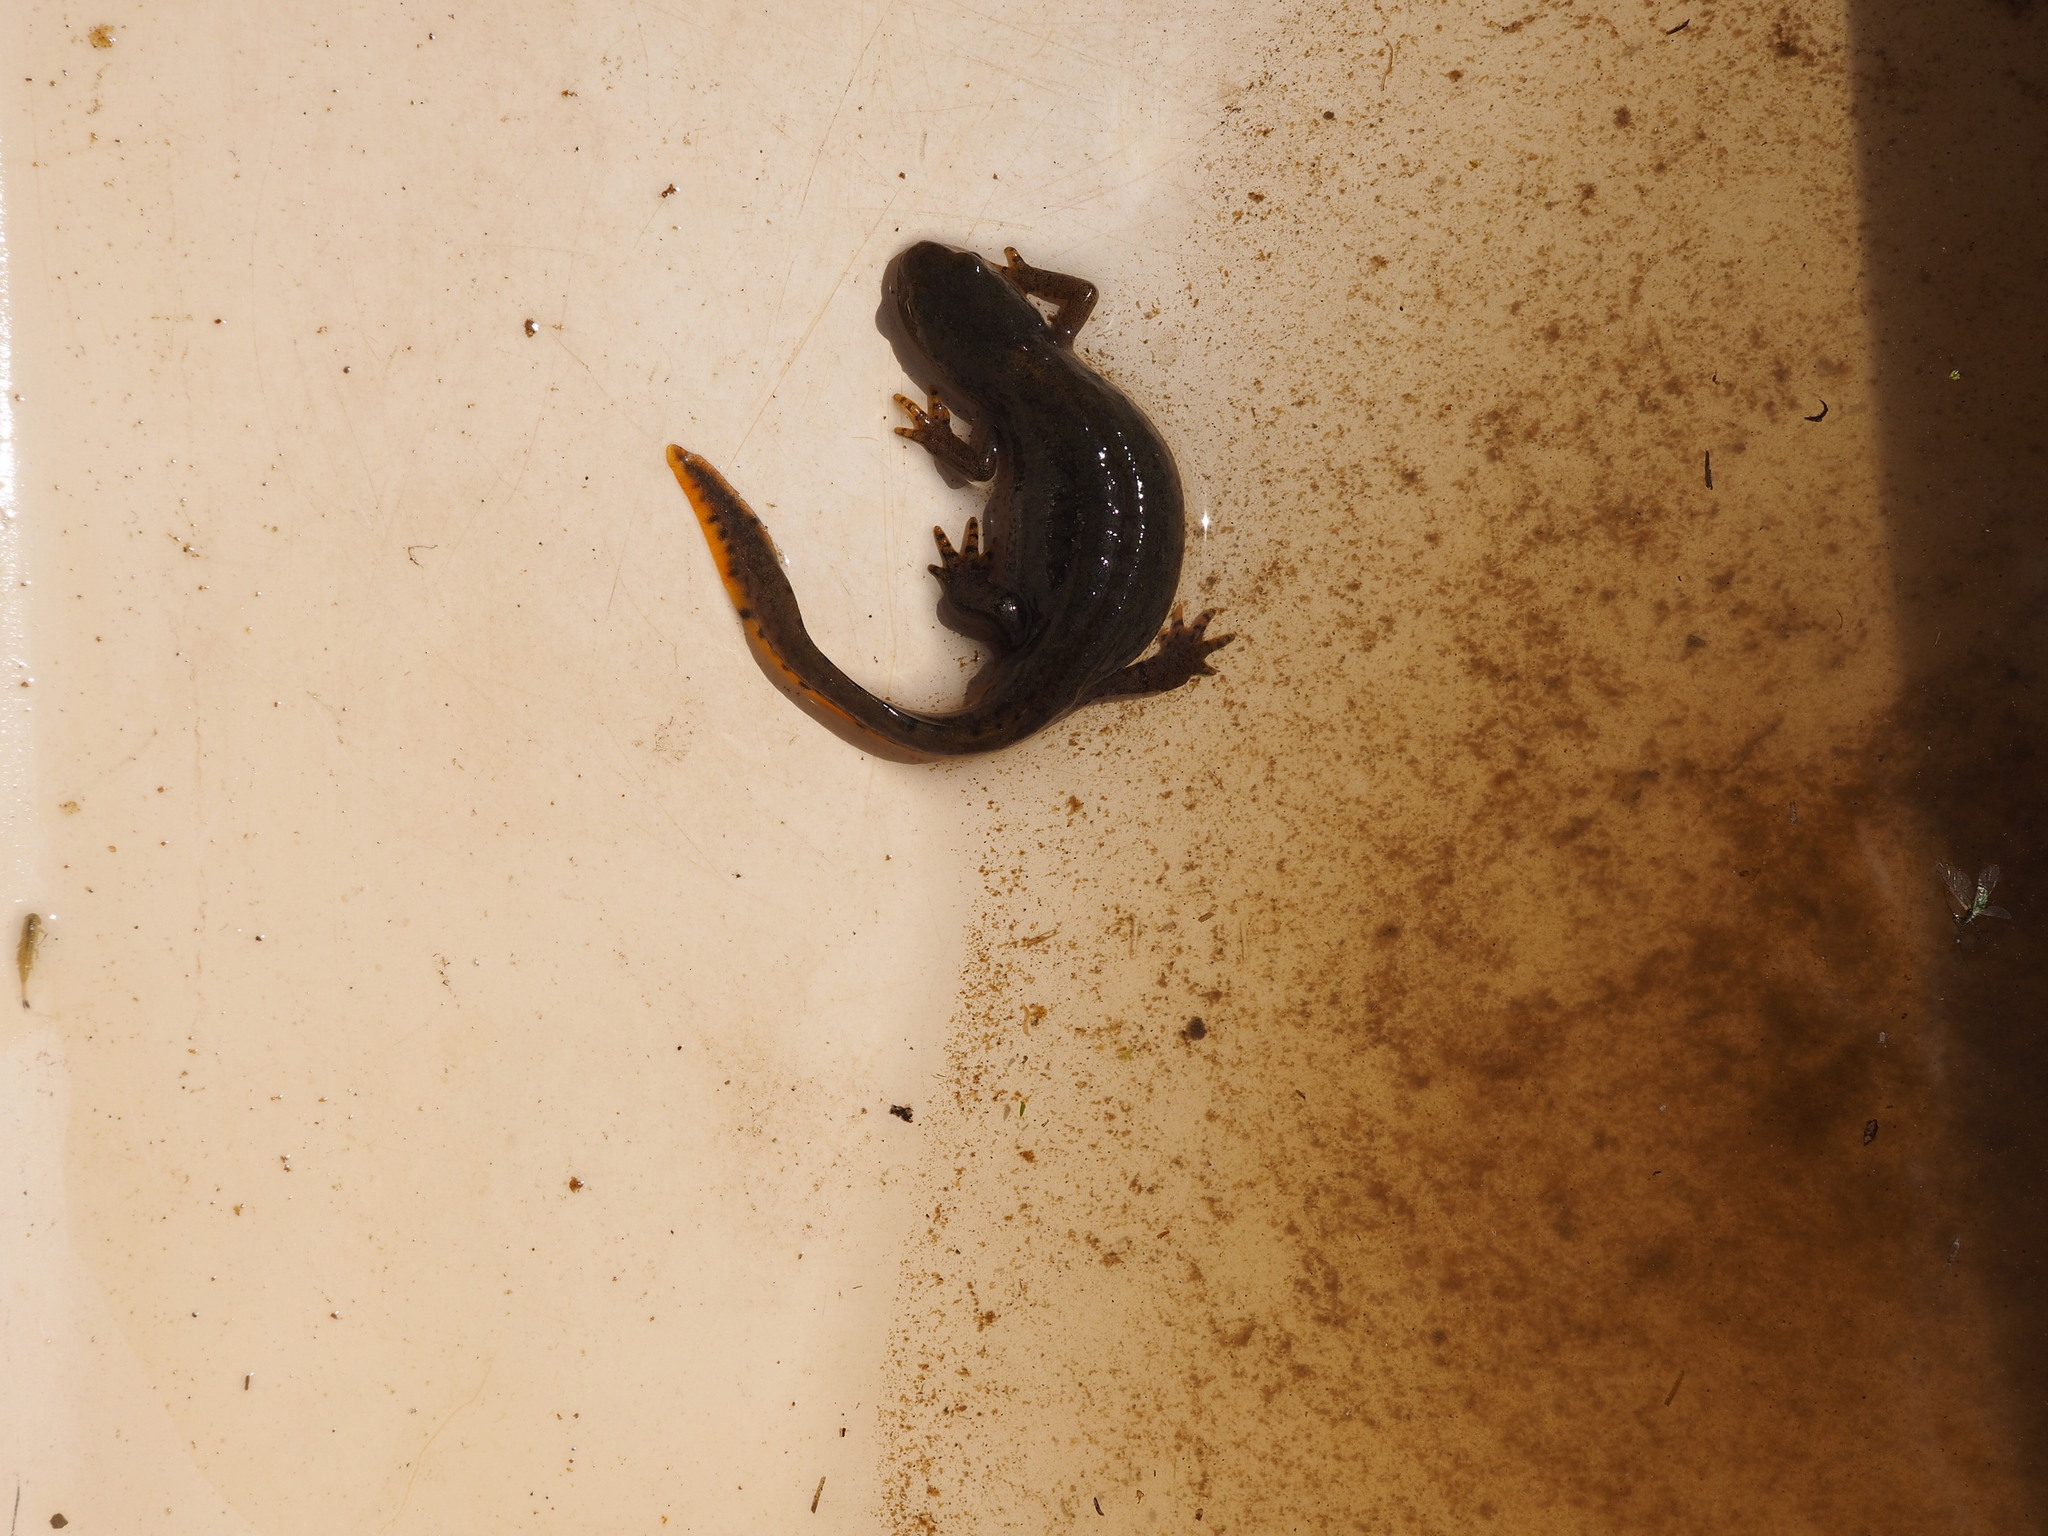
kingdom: Animalia
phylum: Chordata
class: Amphibia
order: Caudata
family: Salamandridae
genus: Ichthyosaura
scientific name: Ichthyosaura alpestris
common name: Alpine newt
